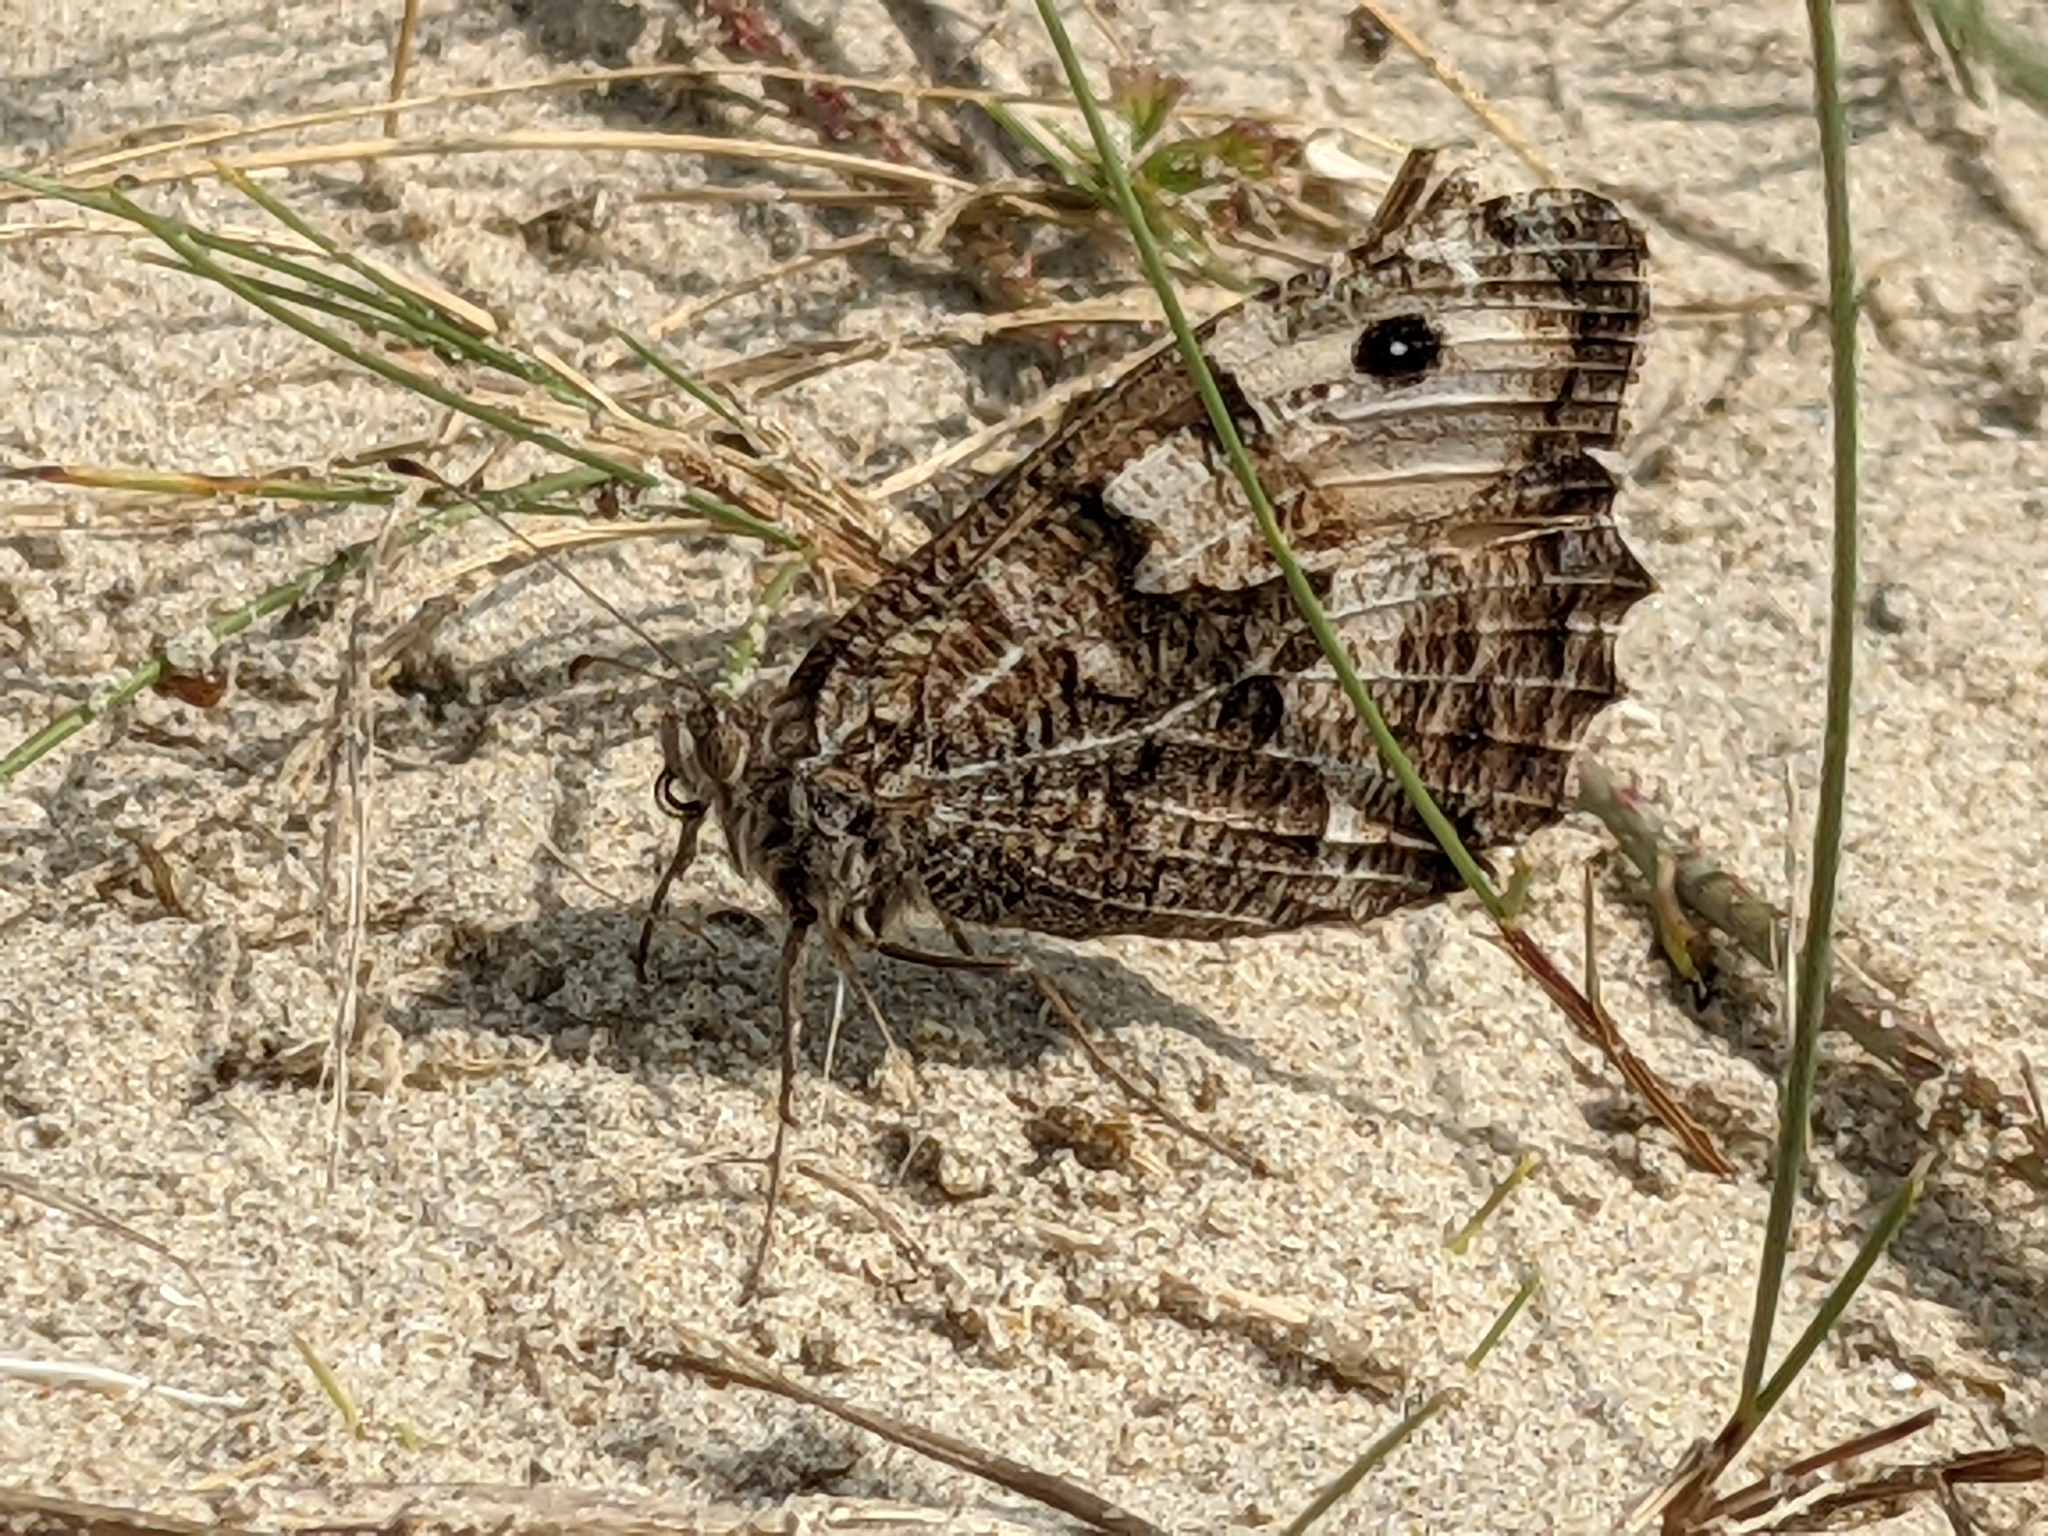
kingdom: Animalia
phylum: Arthropoda
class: Insecta
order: Lepidoptera
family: Nymphalidae
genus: Hipparchia
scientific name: Hipparchia semele
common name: Grayling
